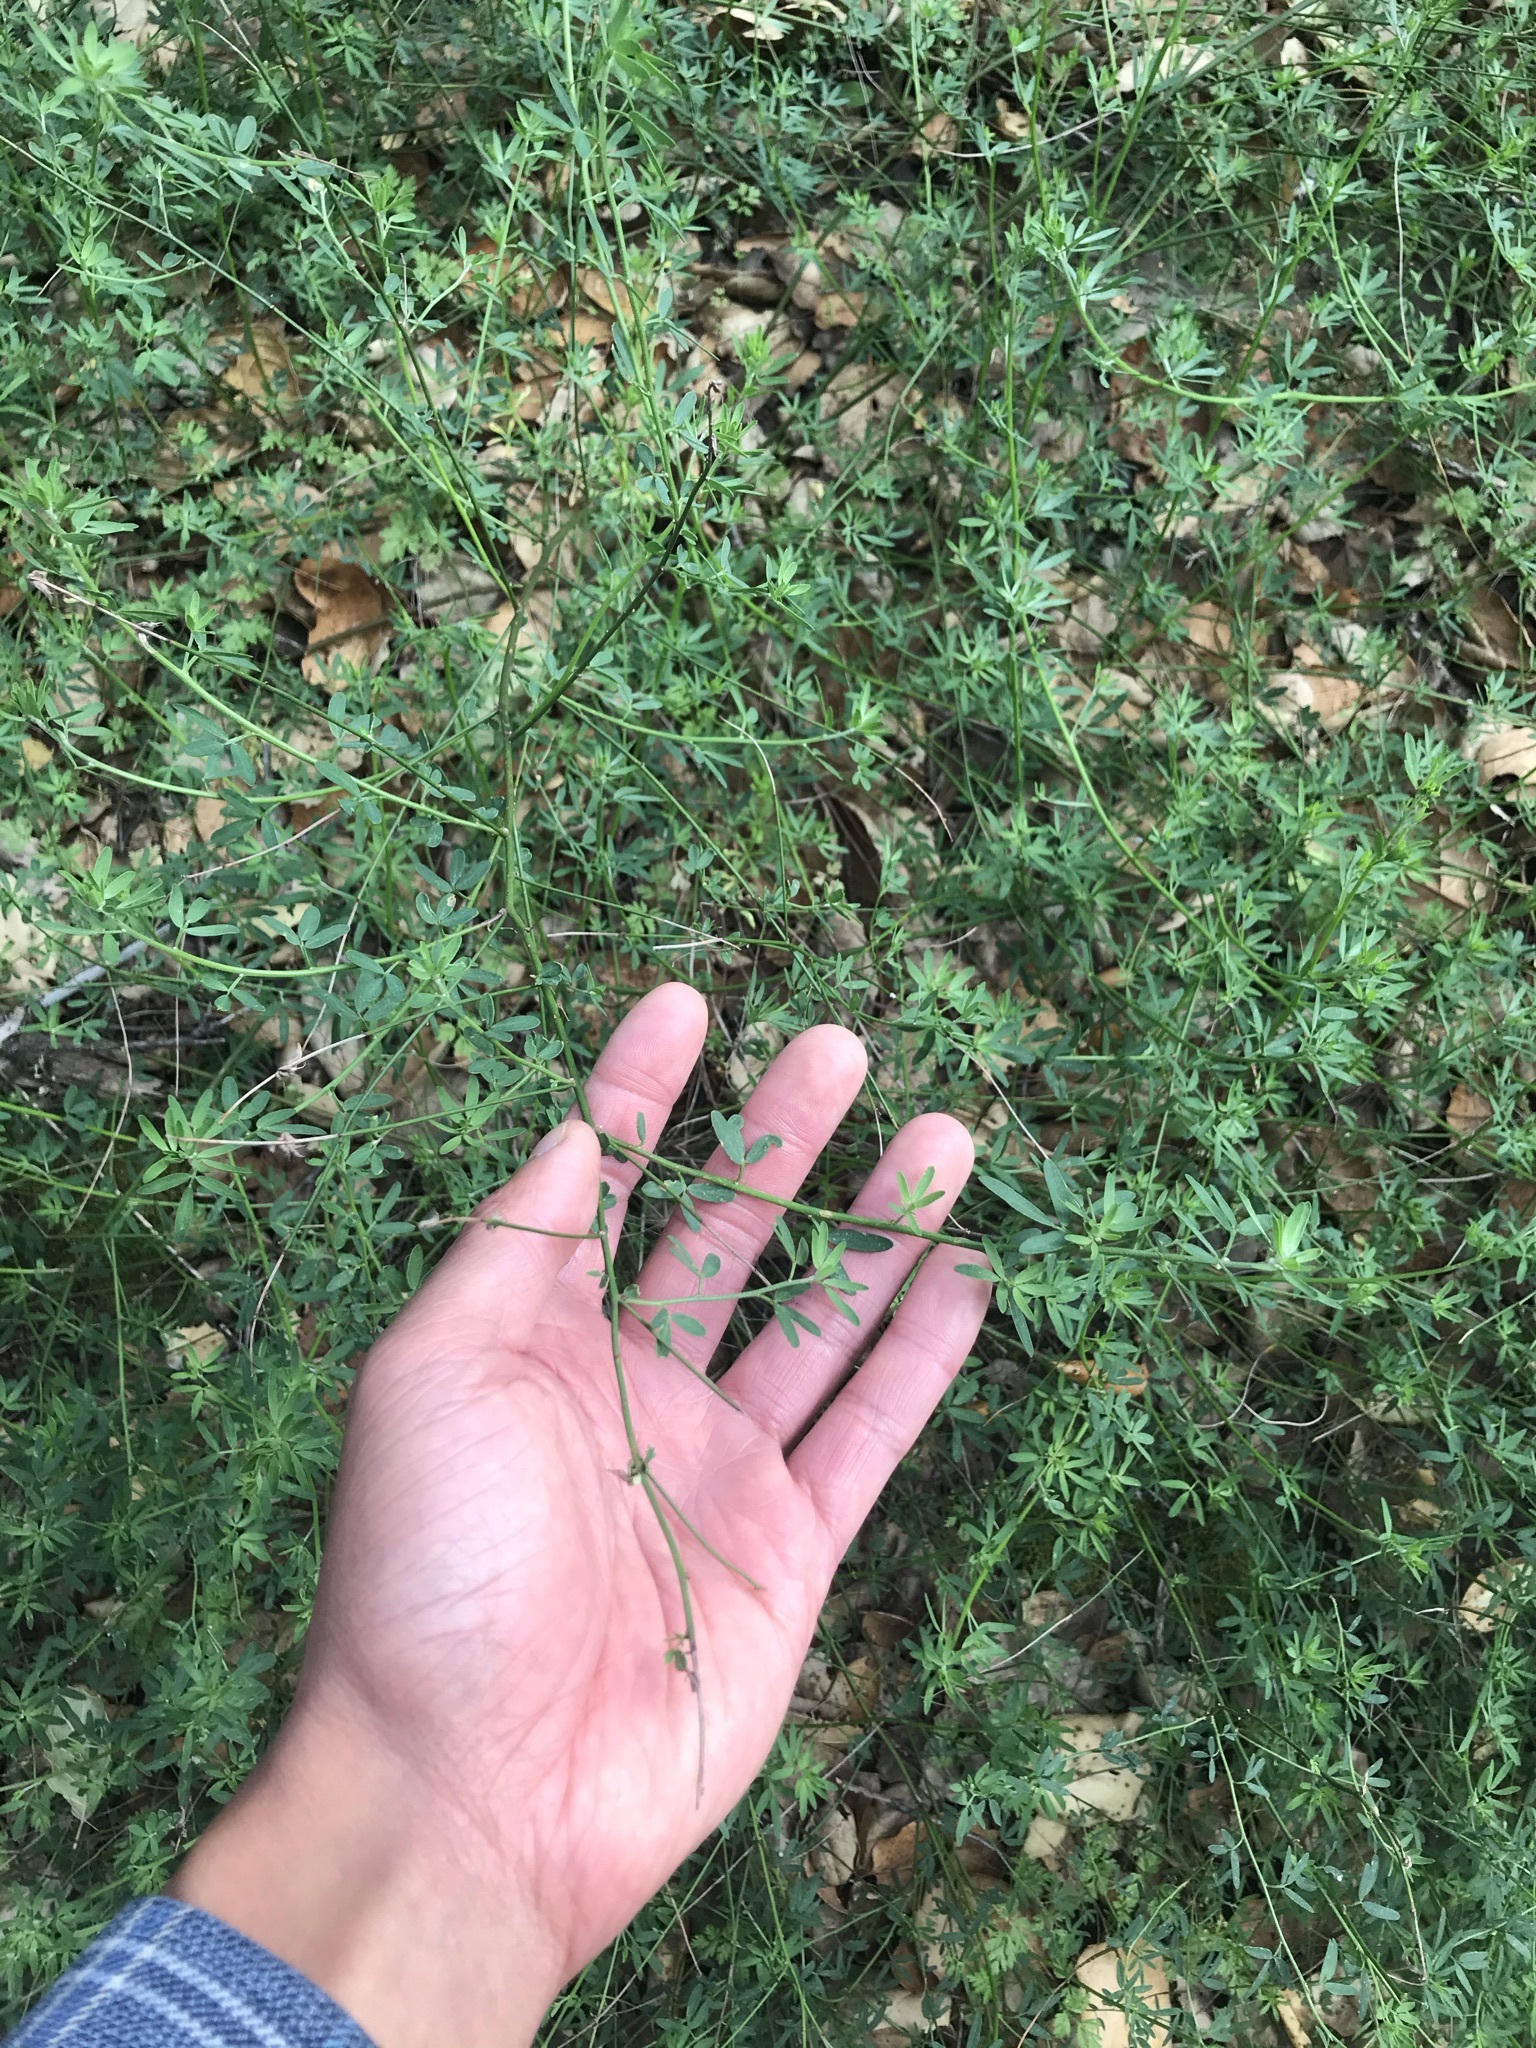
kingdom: Plantae
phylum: Tracheophyta
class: Magnoliopsida
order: Fabales
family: Fabaceae
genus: Acmispon
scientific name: Acmispon glaber
